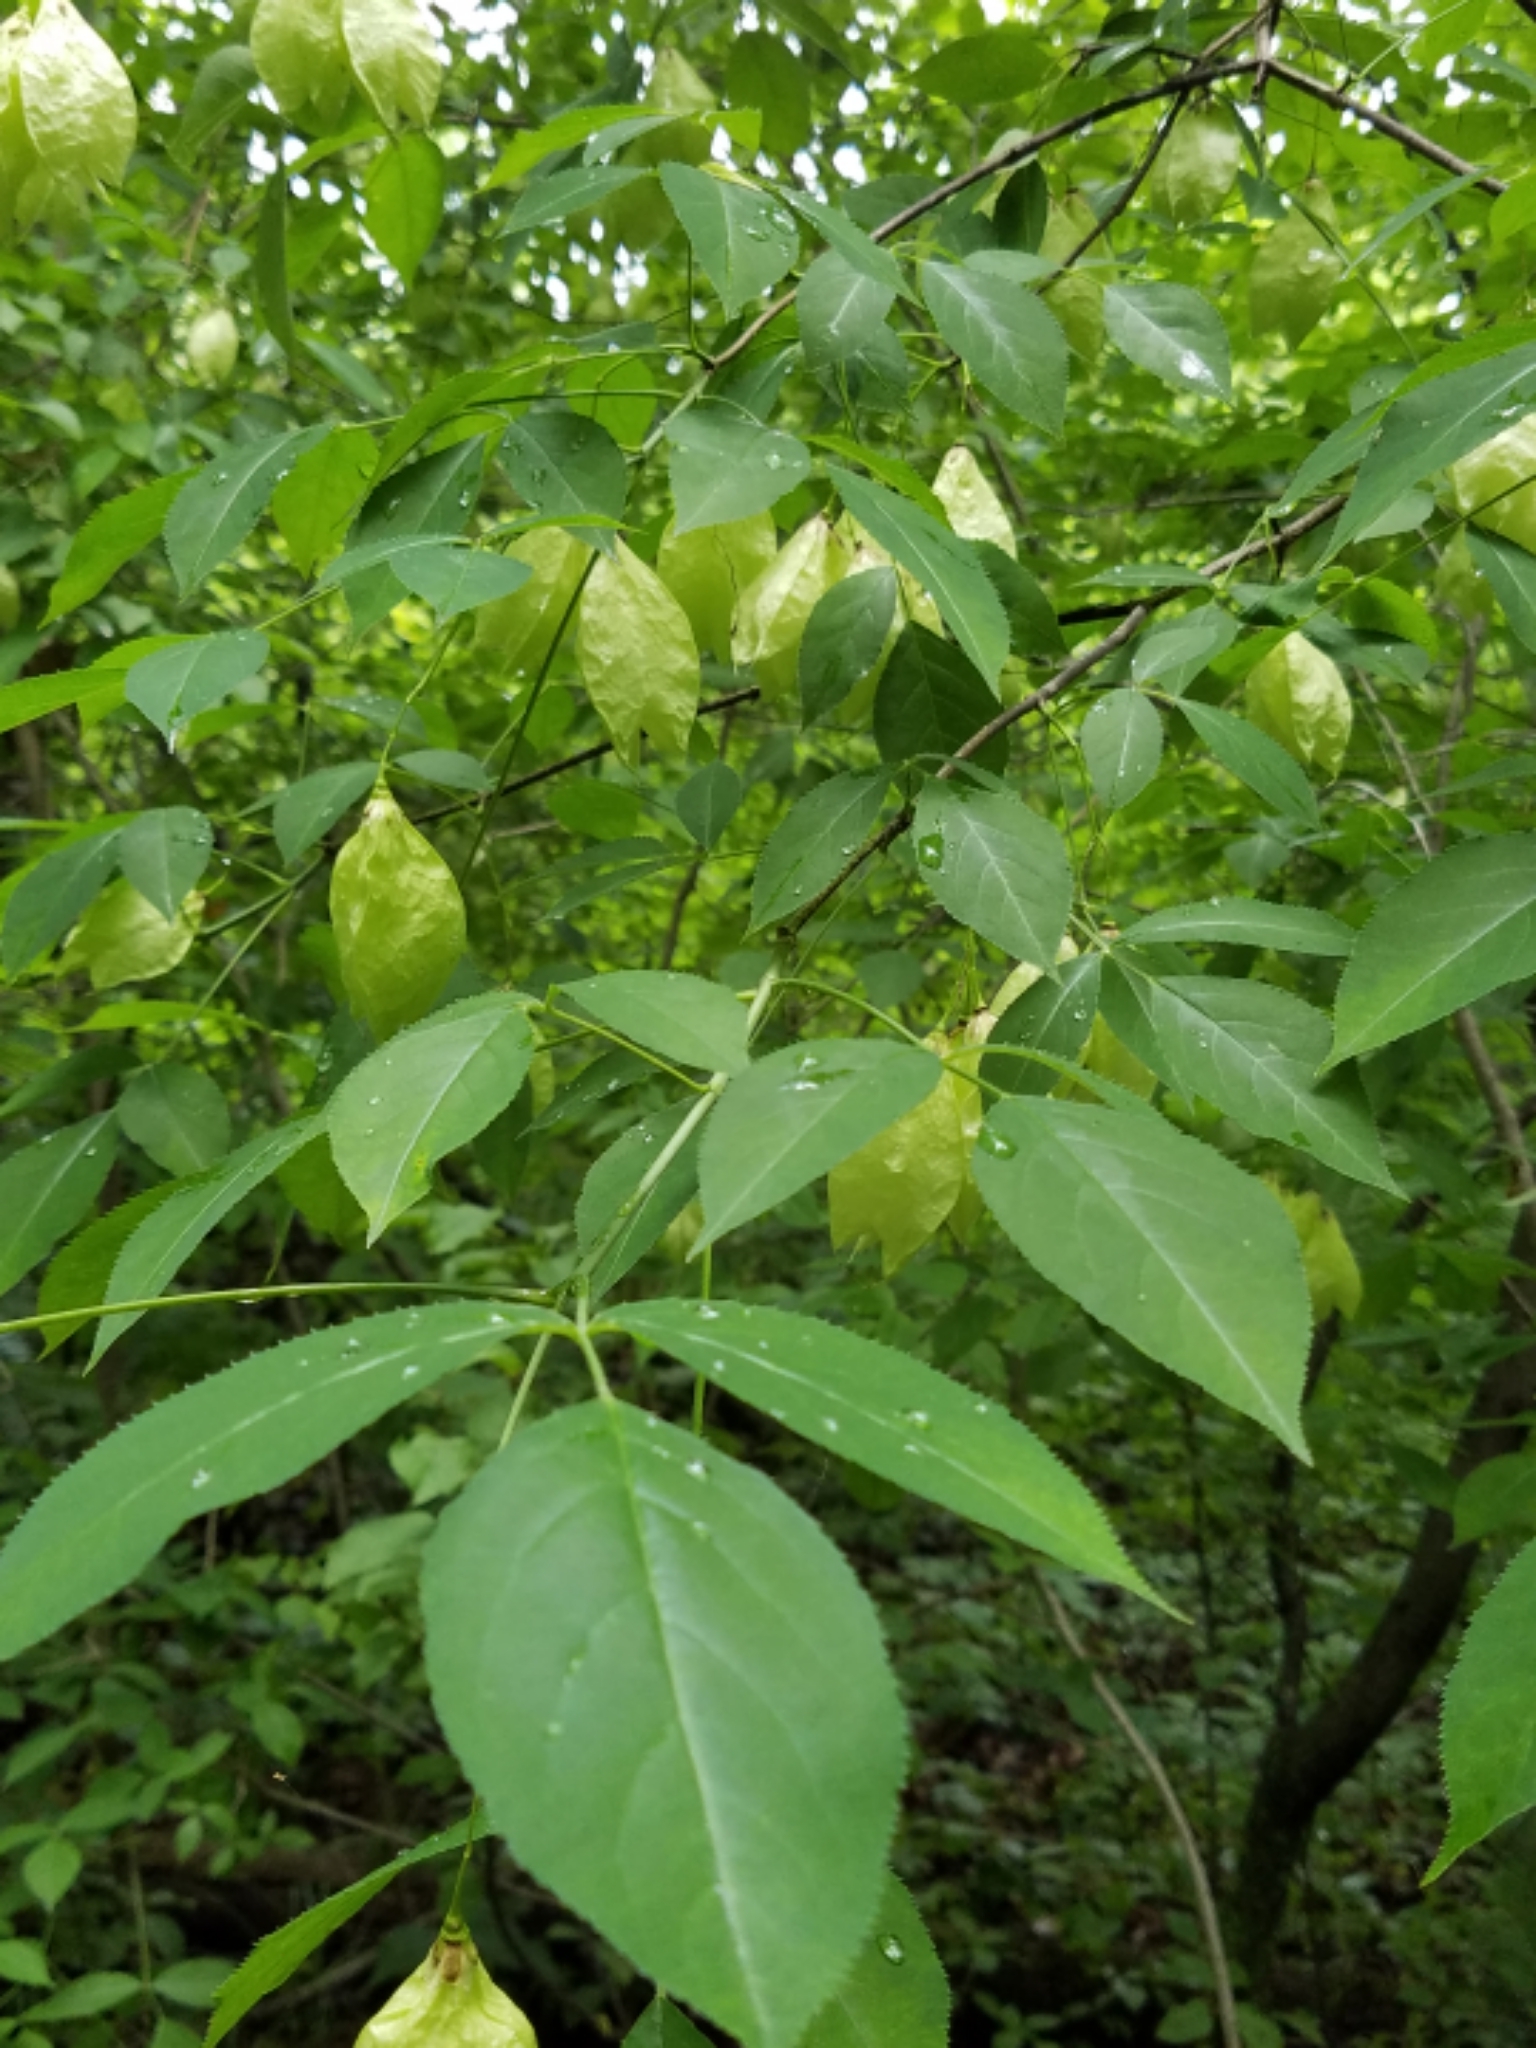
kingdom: Plantae
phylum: Tracheophyta
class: Magnoliopsida
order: Crossosomatales
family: Staphyleaceae
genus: Staphylea
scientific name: Staphylea trifolia
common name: American bladdernut
